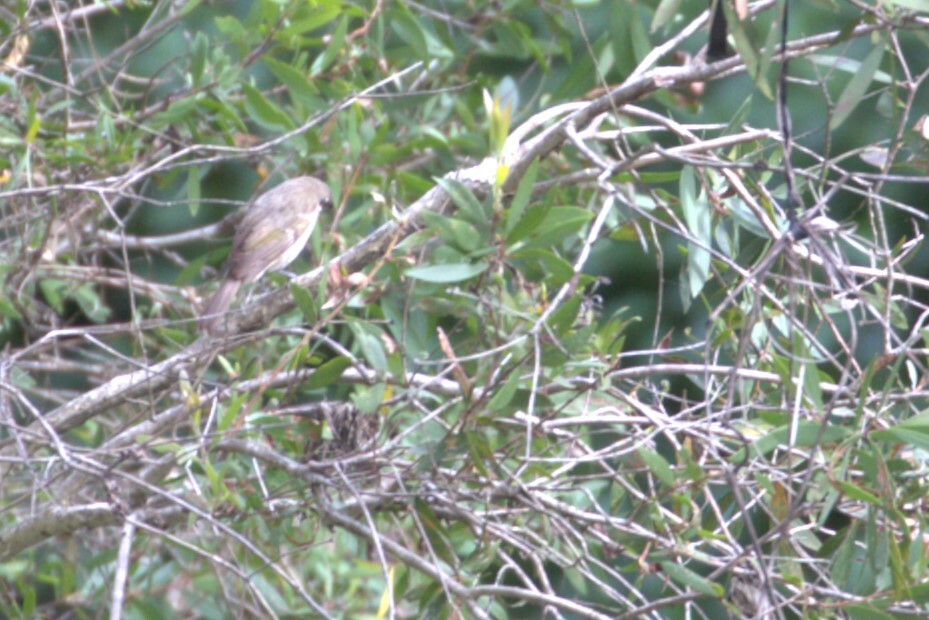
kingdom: Animalia
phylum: Chordata
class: Aves
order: Passeriformes
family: Meliphagidae
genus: Caligavis
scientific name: Caligavis chrysops
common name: Yellow-faced honeyeater
